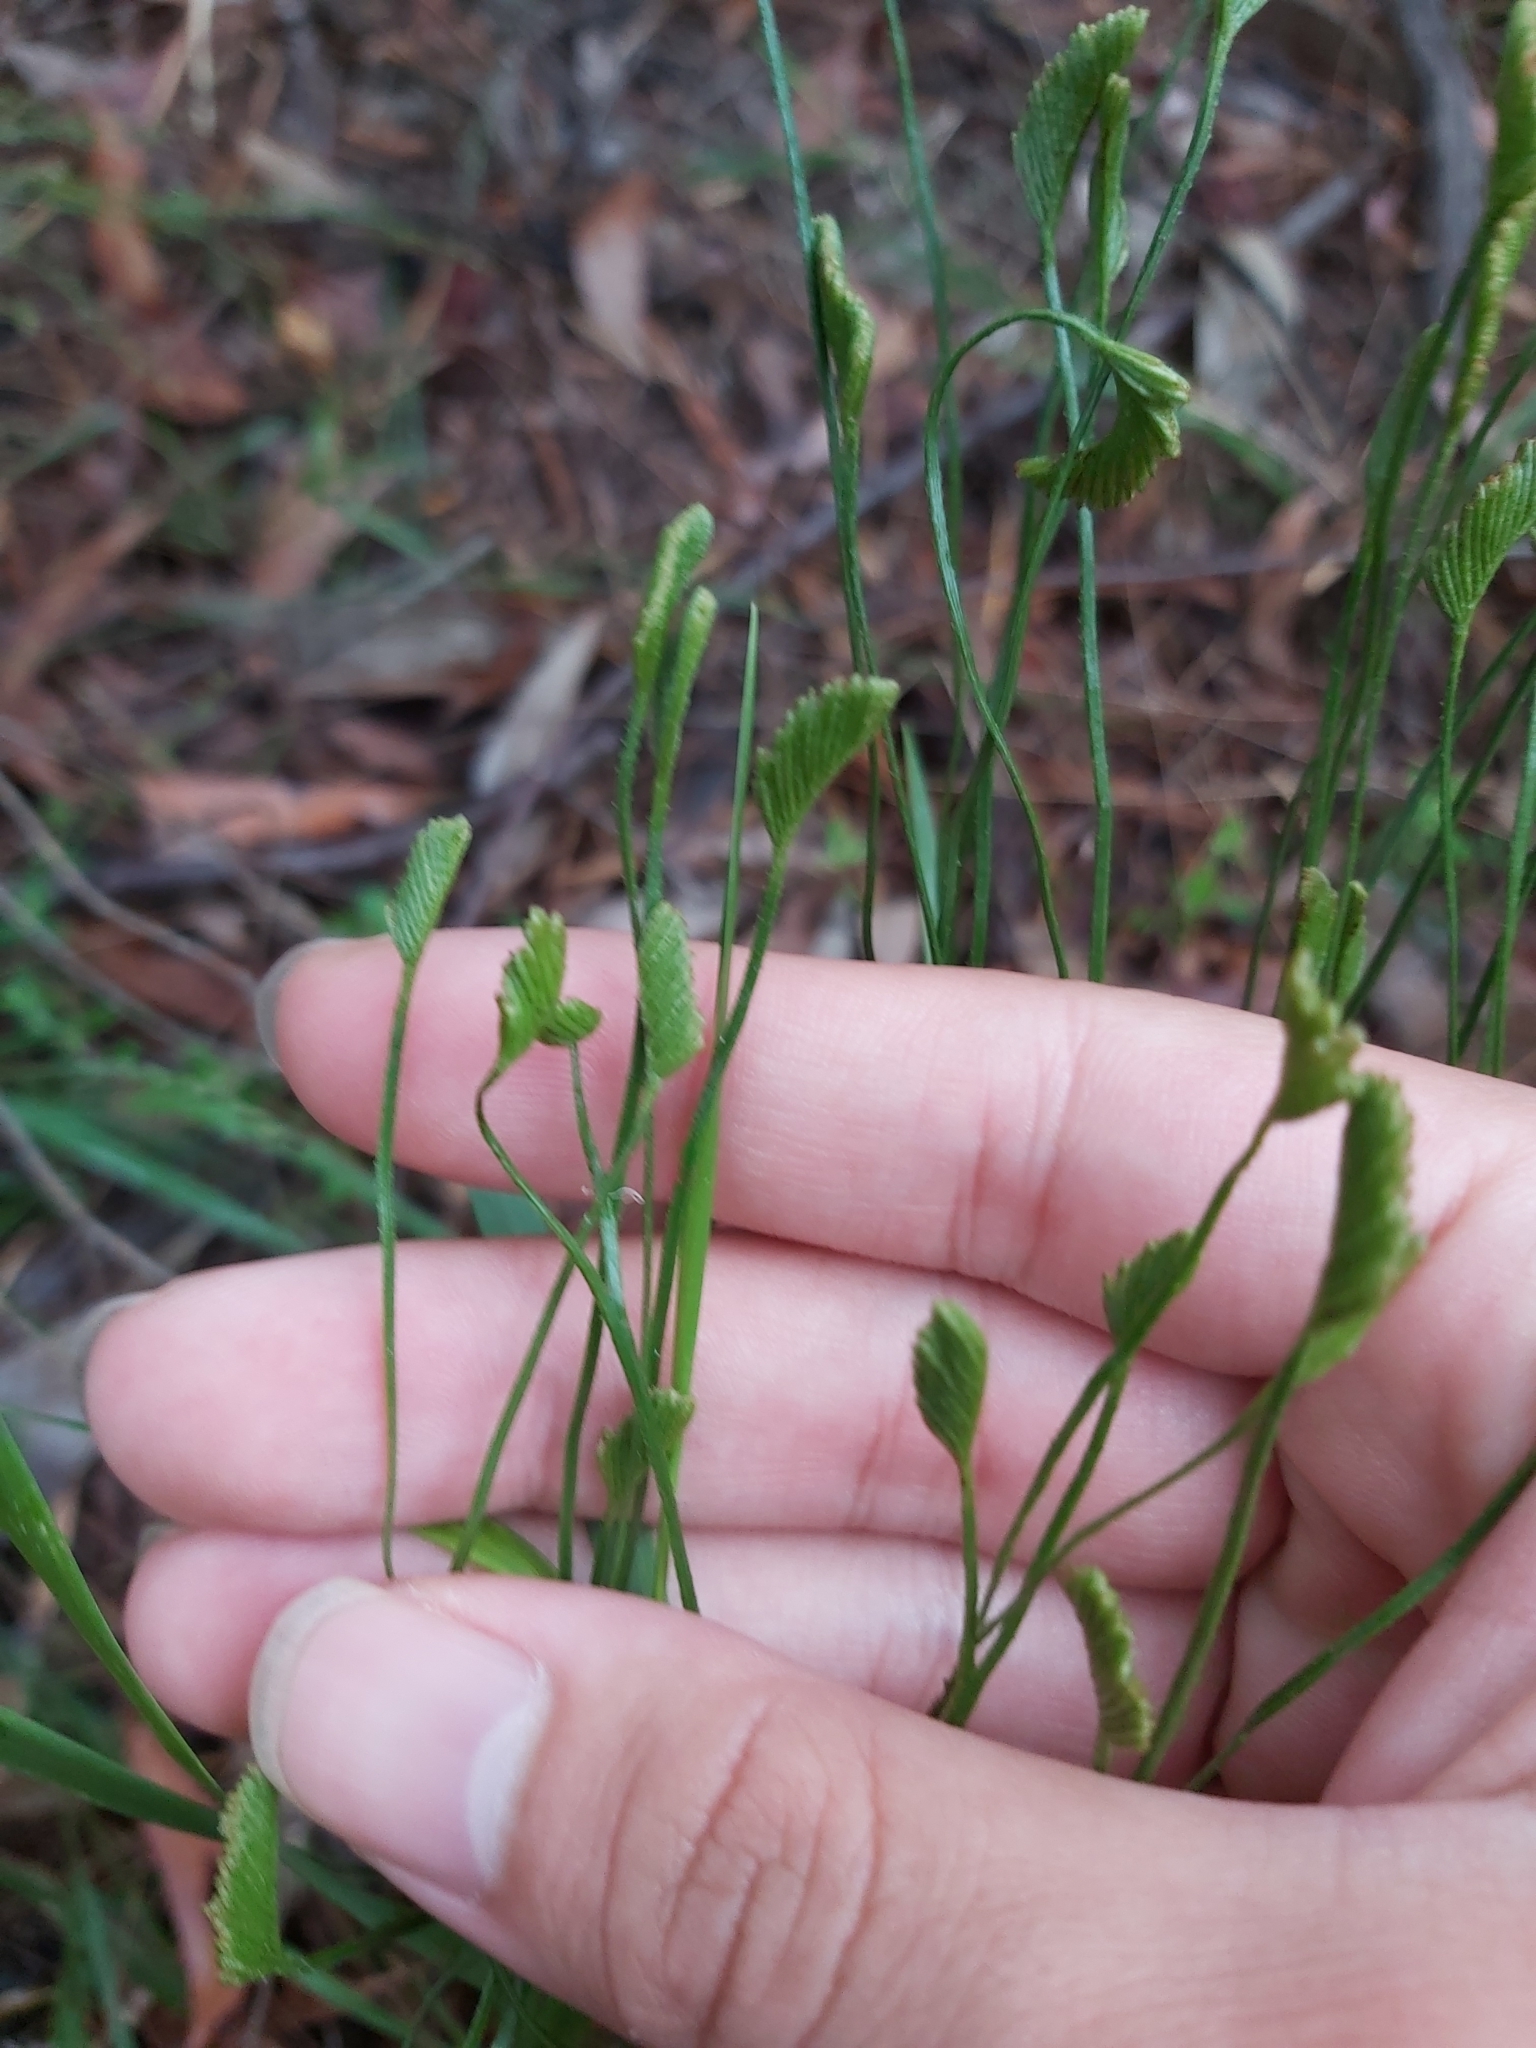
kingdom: Plantae
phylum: Tracheophyta
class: Polypodiopsida
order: Schizaeales
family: Schizaeaceae
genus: Schizaea
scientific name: Schizaea bifida
